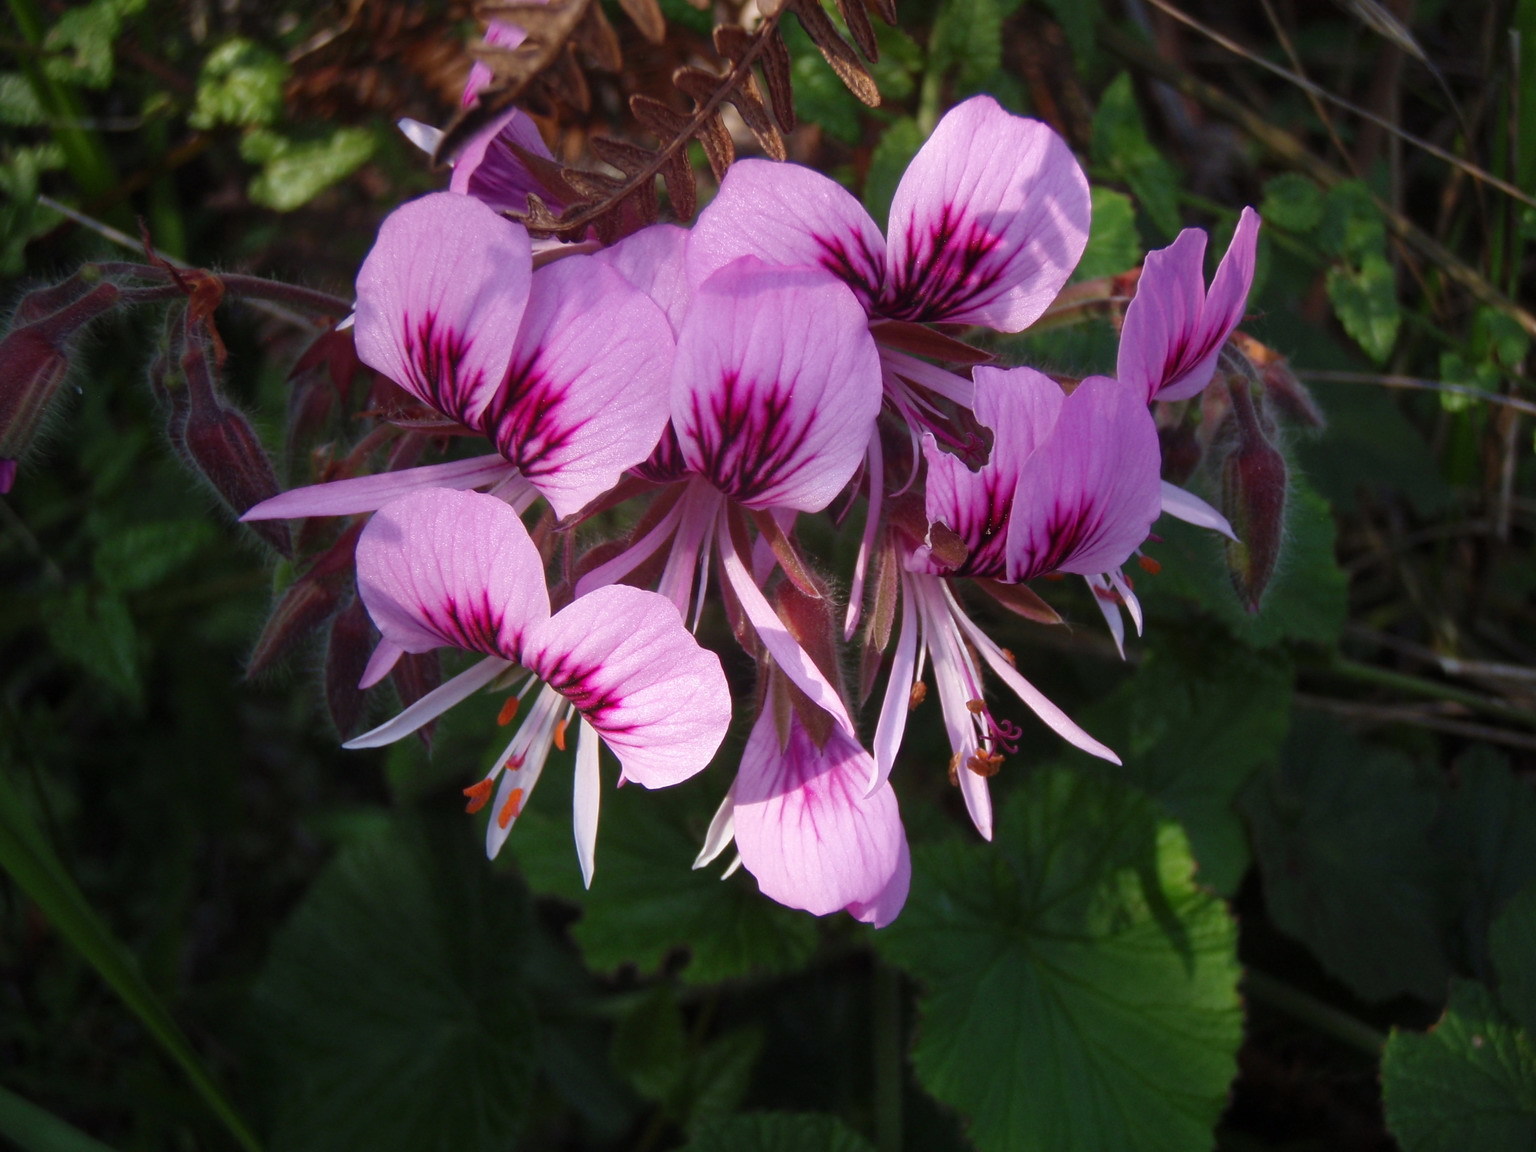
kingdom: Plantae
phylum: Tracheophyta
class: Magnoliopsida
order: Geraniales
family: Geraniaceae
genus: Pelargonium
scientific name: Pelargonium cordifolium
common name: Heart-leaf pelargonium
